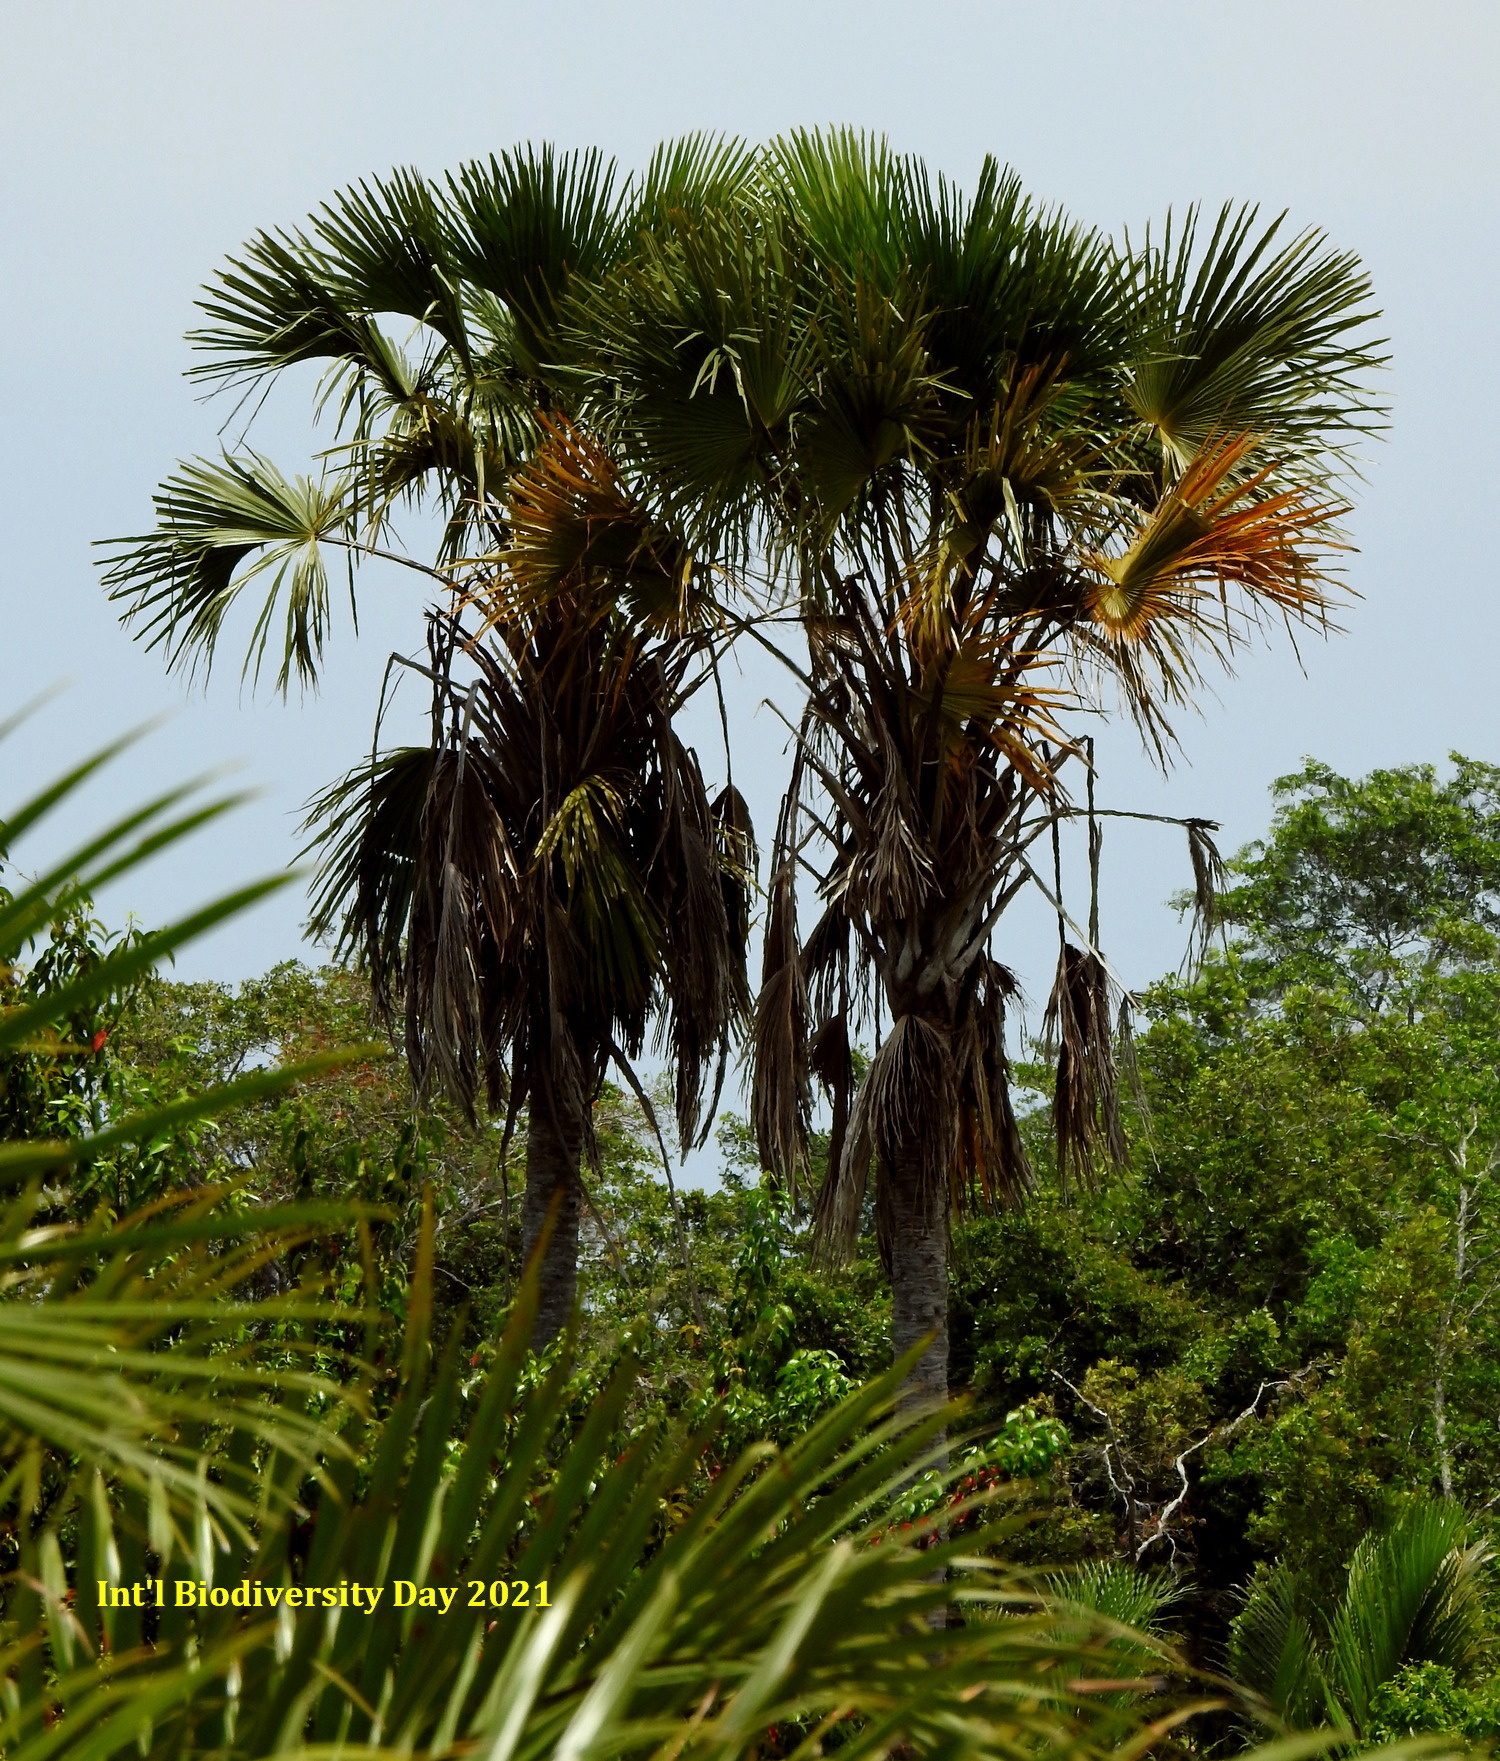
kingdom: Plantae
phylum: Tracheophyta
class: Liliopsida
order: Arecales
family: Arecaceae
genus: Corypha
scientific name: Corypha utan
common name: Buri palm
